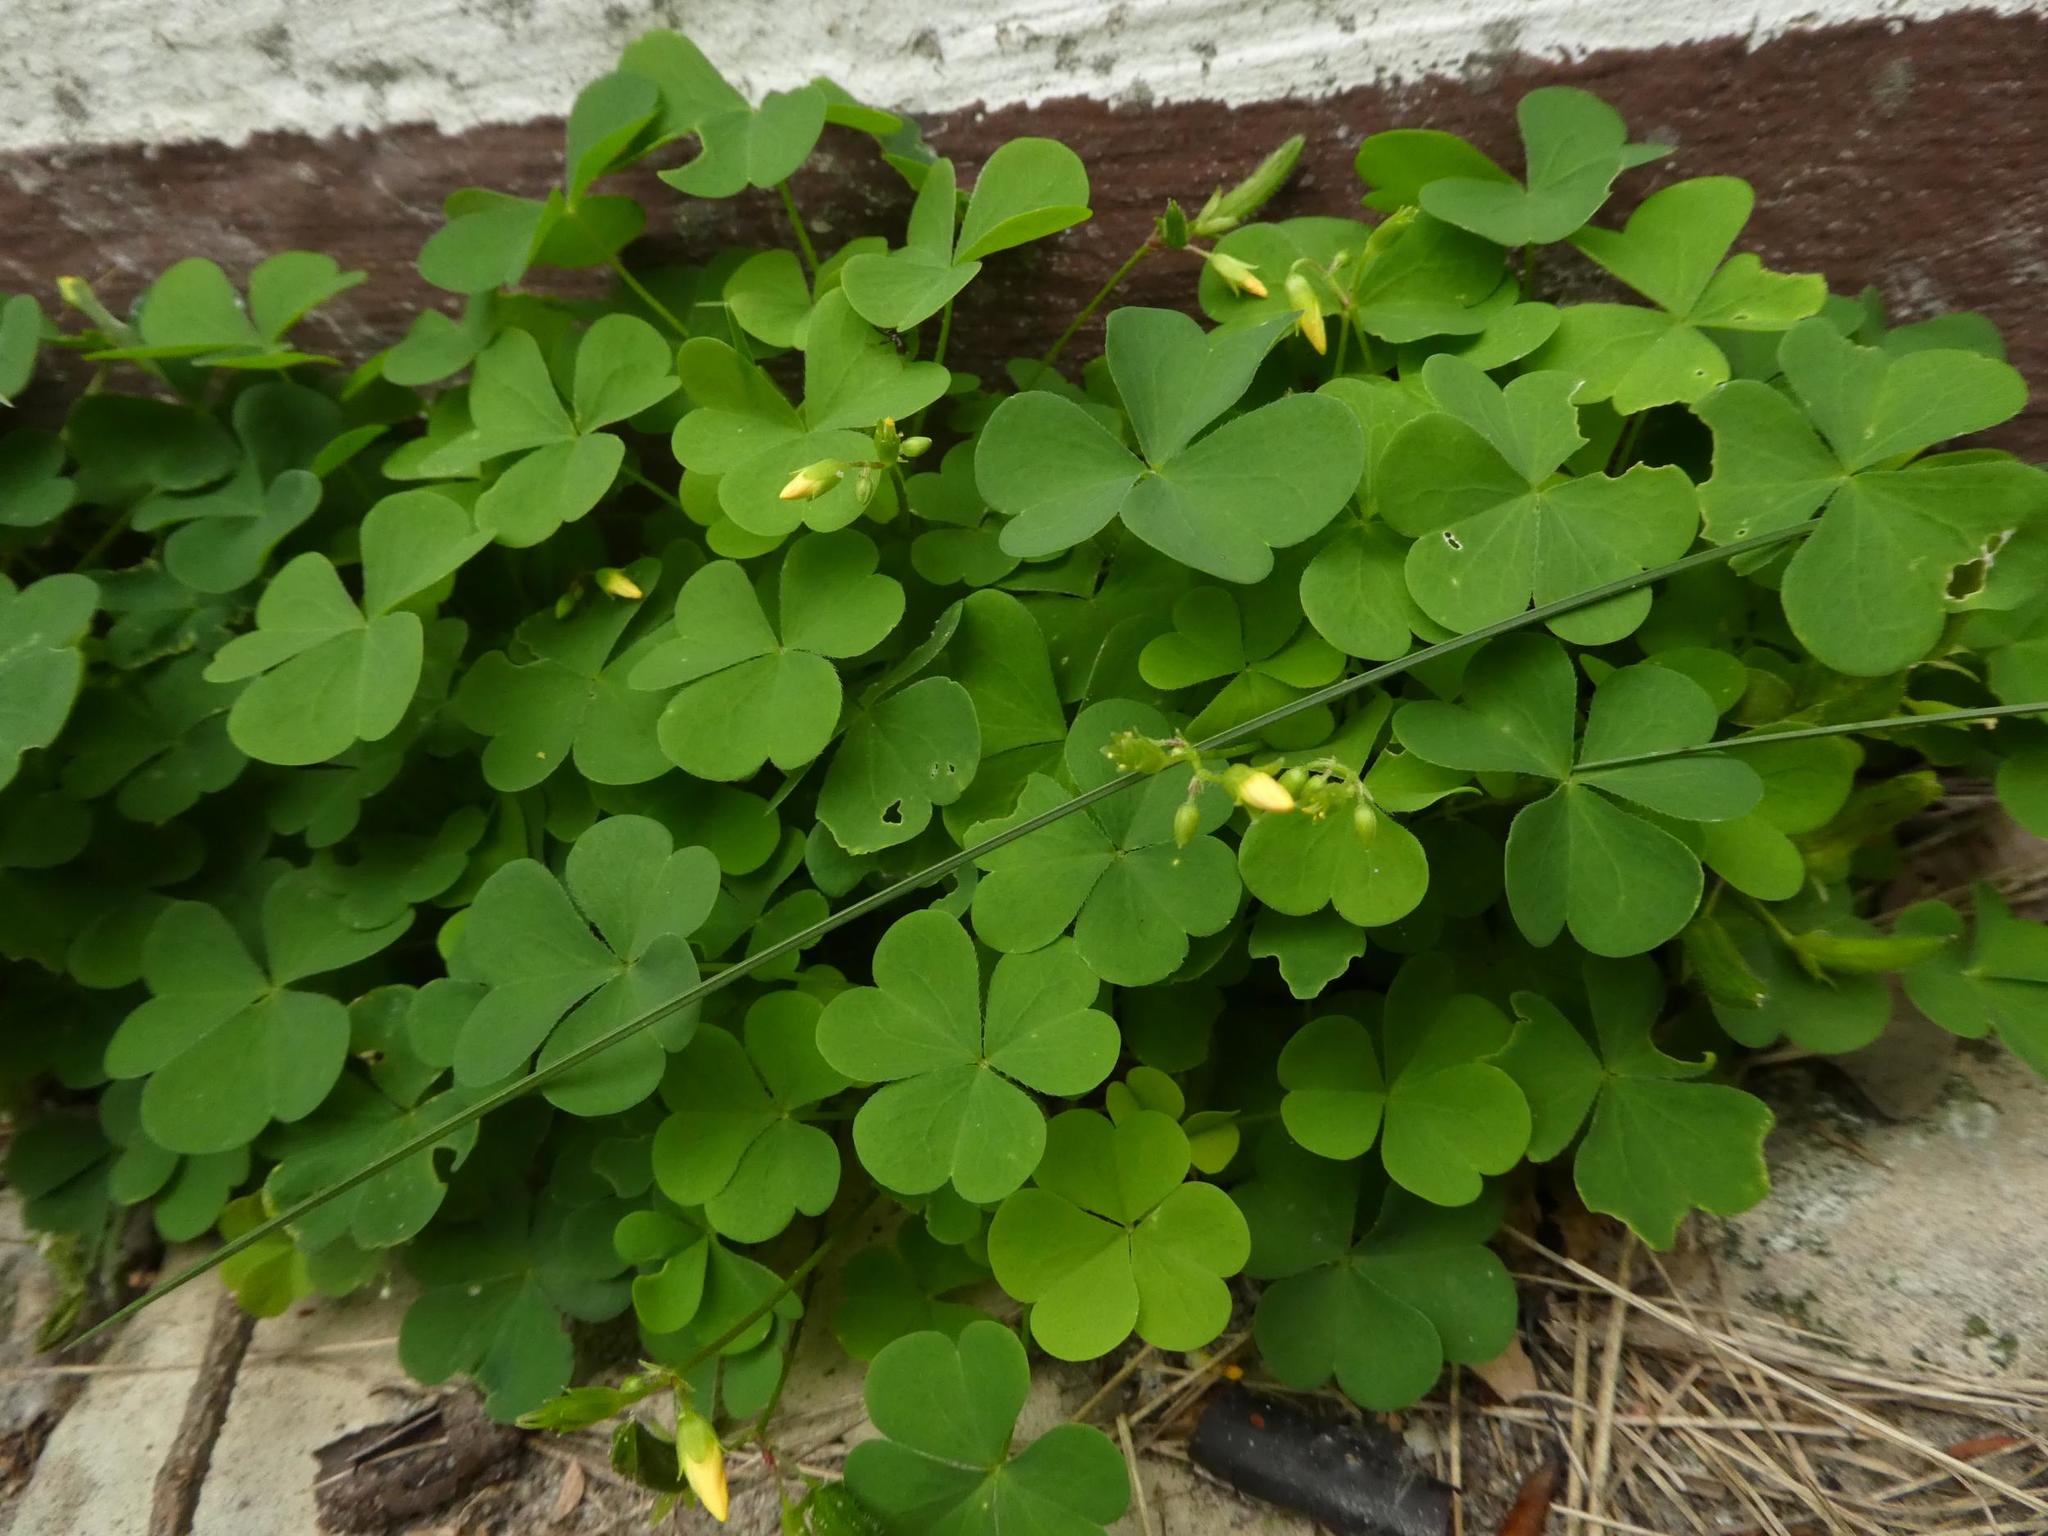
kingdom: Plantae
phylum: Tracheophyta
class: Magnoliopsida
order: Oxalidales
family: Oxalidaceae
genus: Oxalis
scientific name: Oxalis stricta
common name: Upright yellow-sorrel
